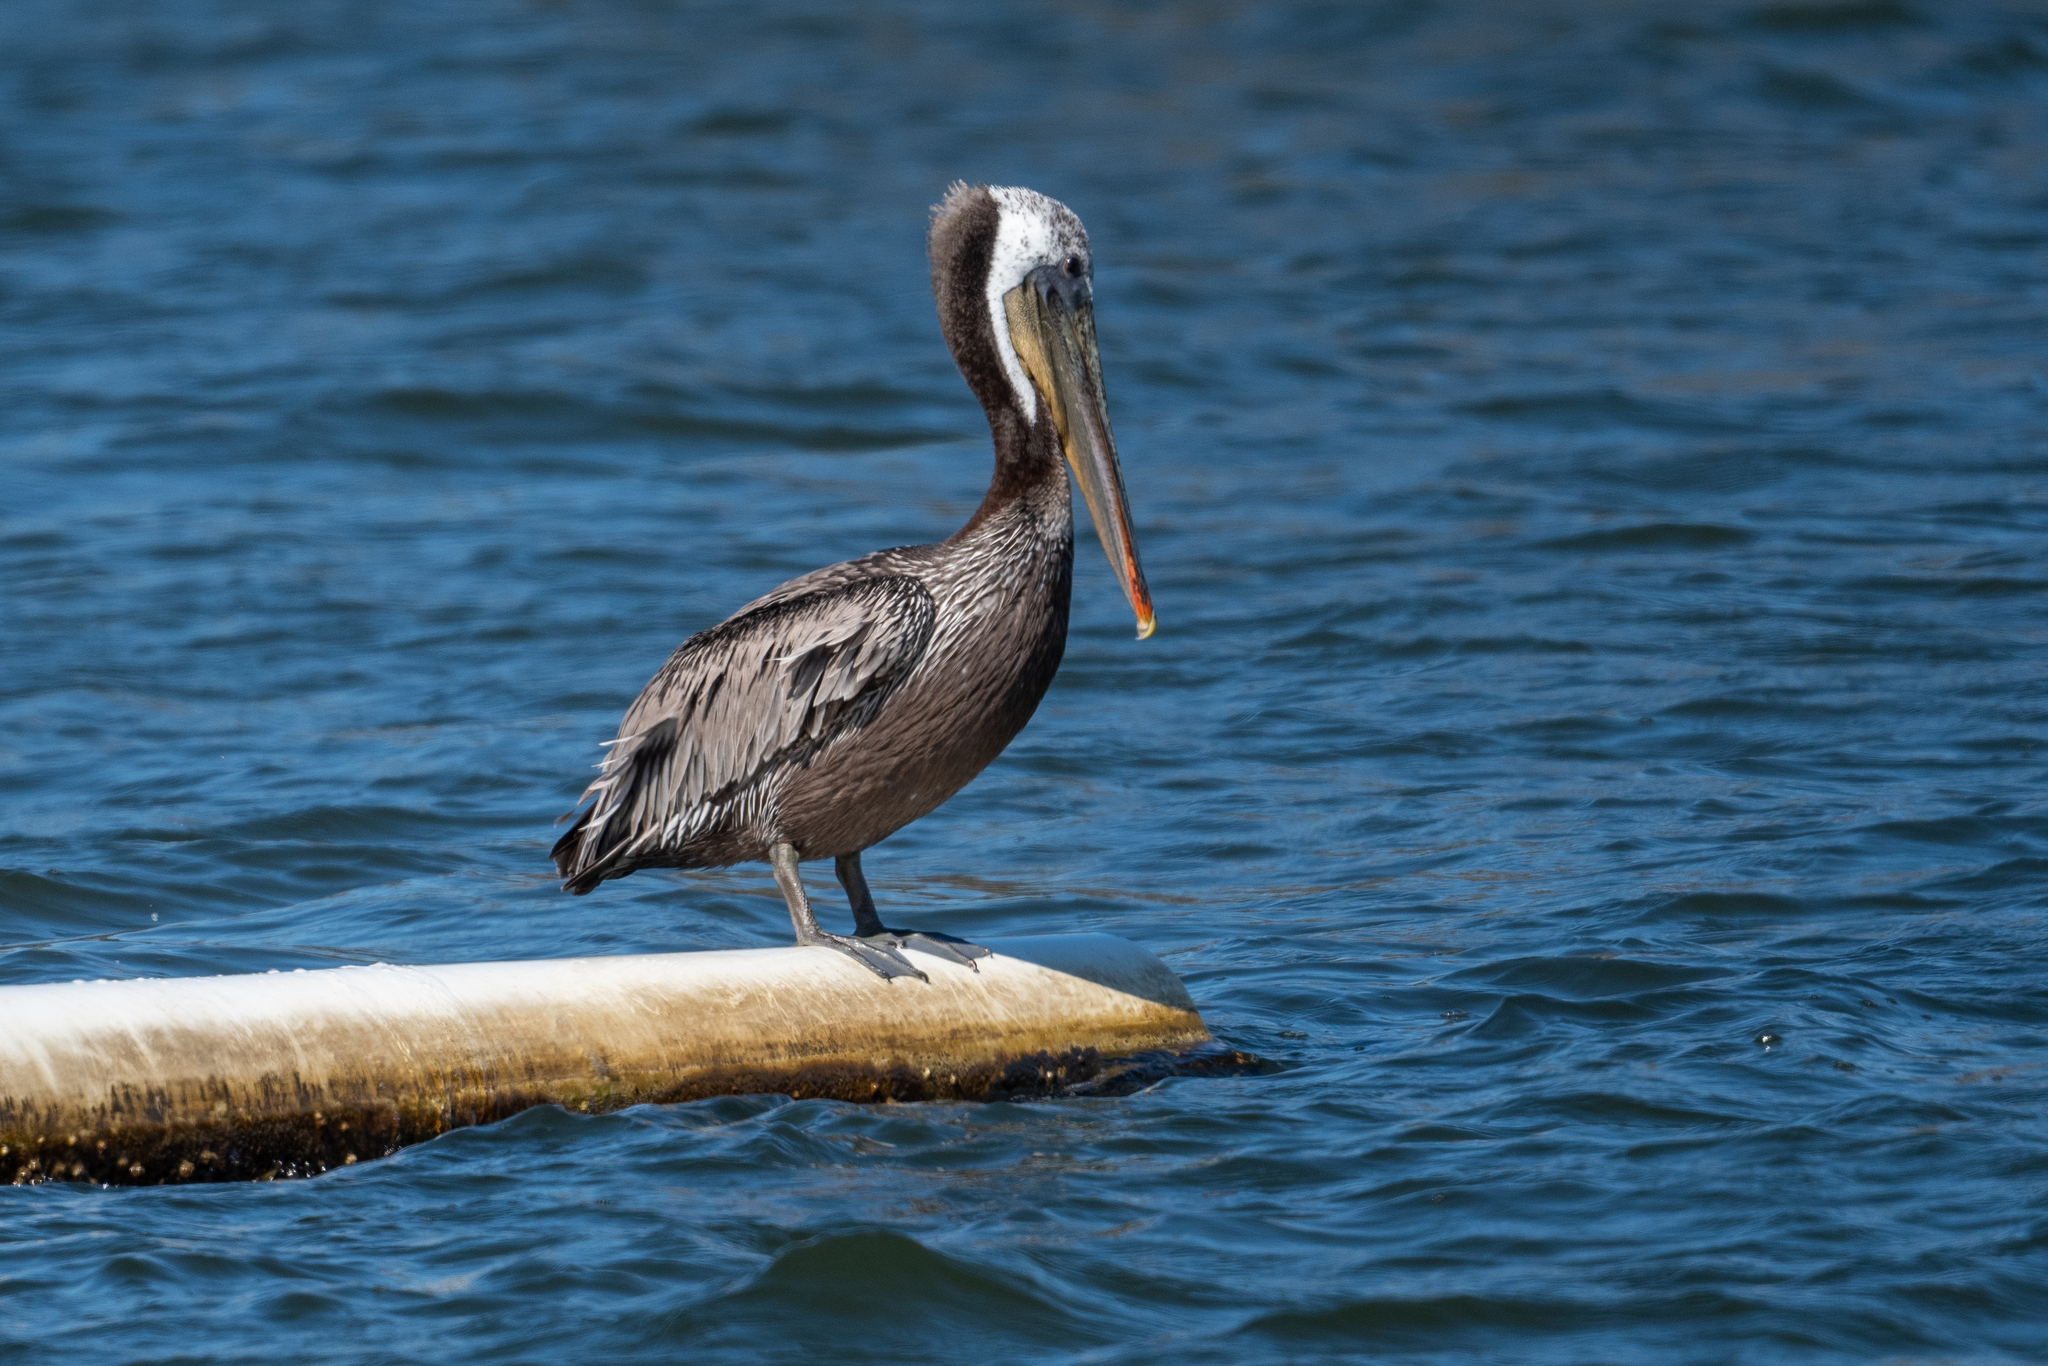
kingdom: Animalia
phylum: Chordata
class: Aves
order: Pelecaniformes
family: Pelecanidae
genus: Pelecanus
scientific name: Pelecanus occidentalis
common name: Brown pelican
